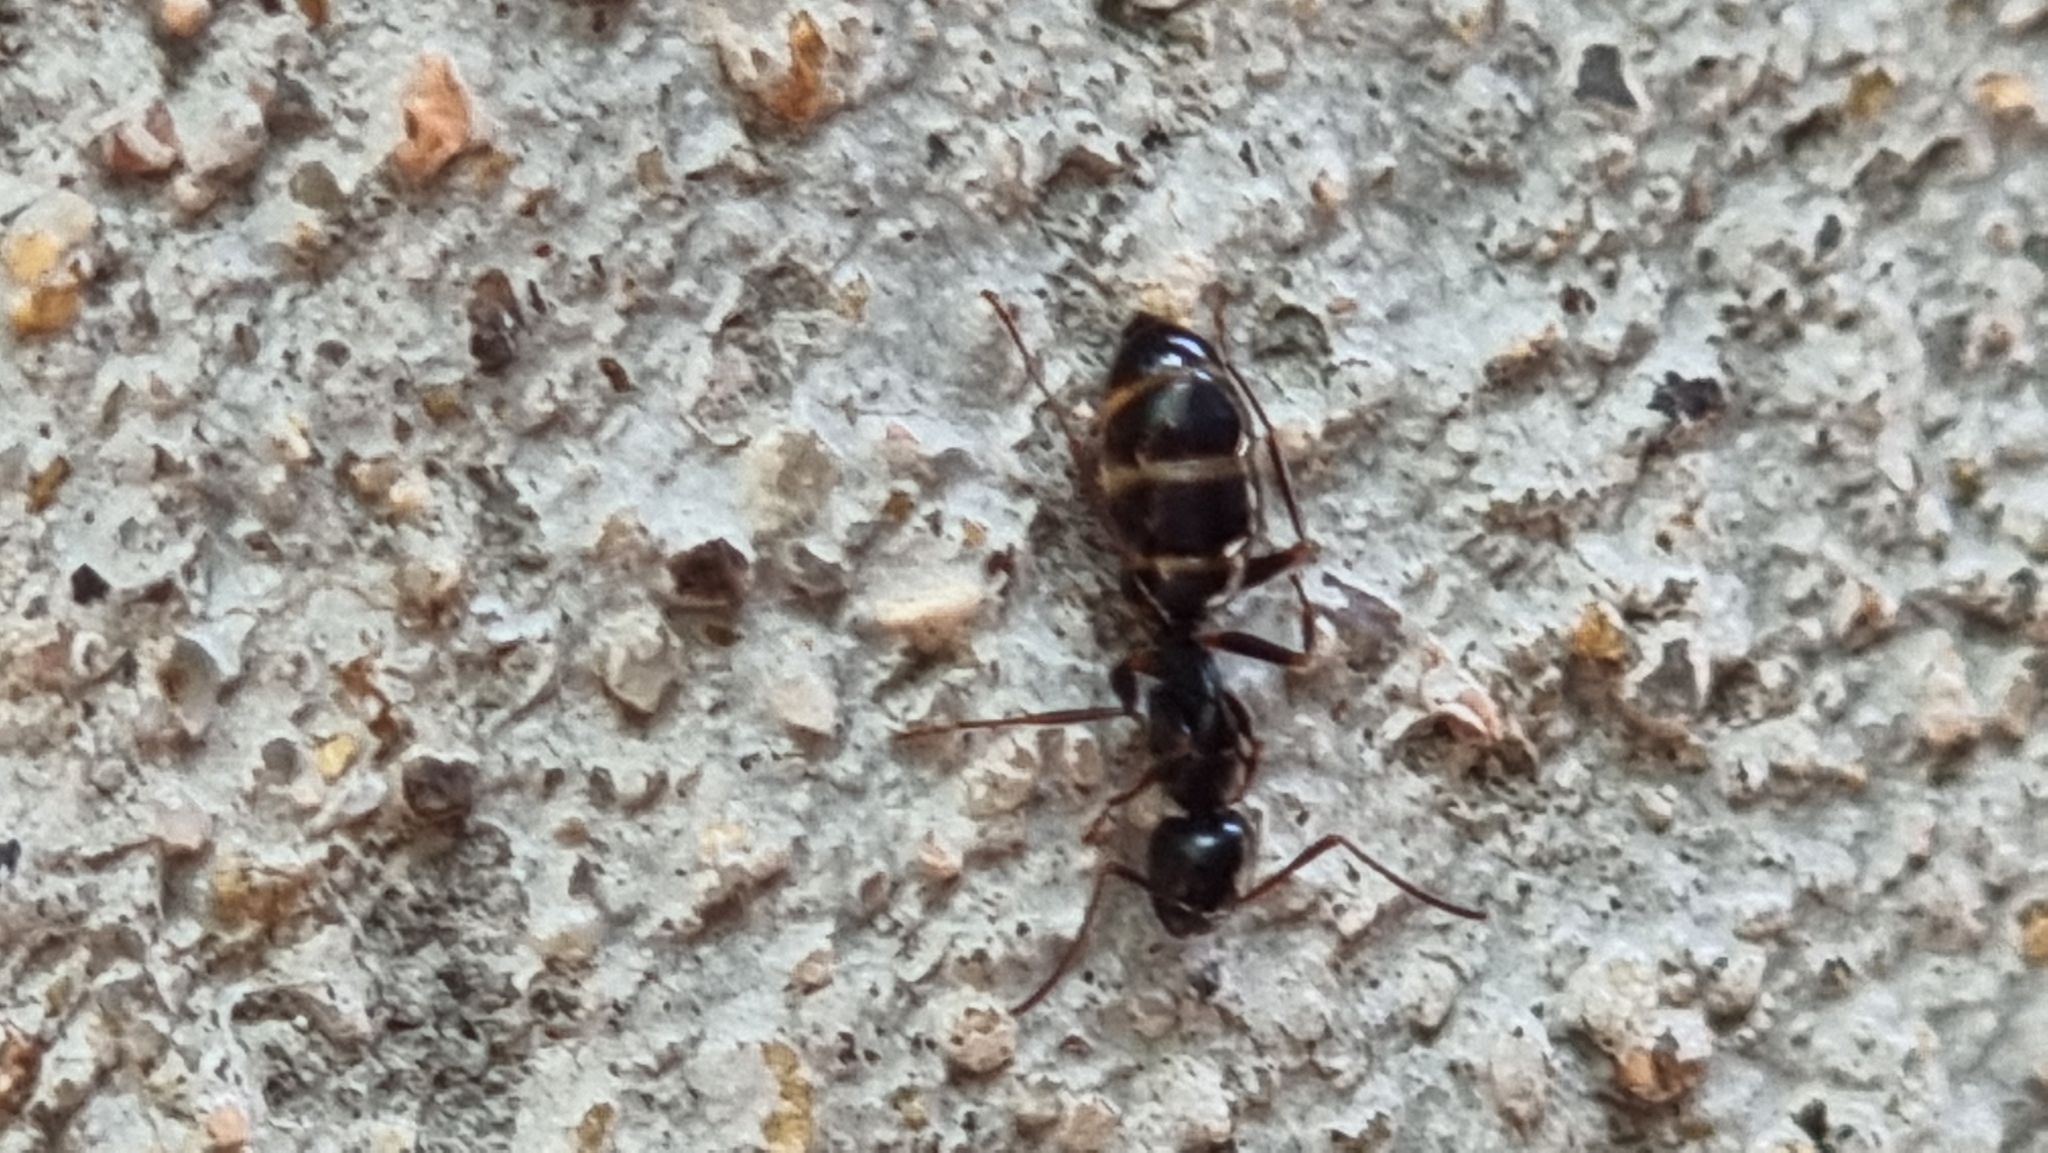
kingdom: Animalia
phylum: Arthropoda
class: Insecta
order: Hymenoptera
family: Formicidae
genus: Camponotus
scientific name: Camponotus fallax
